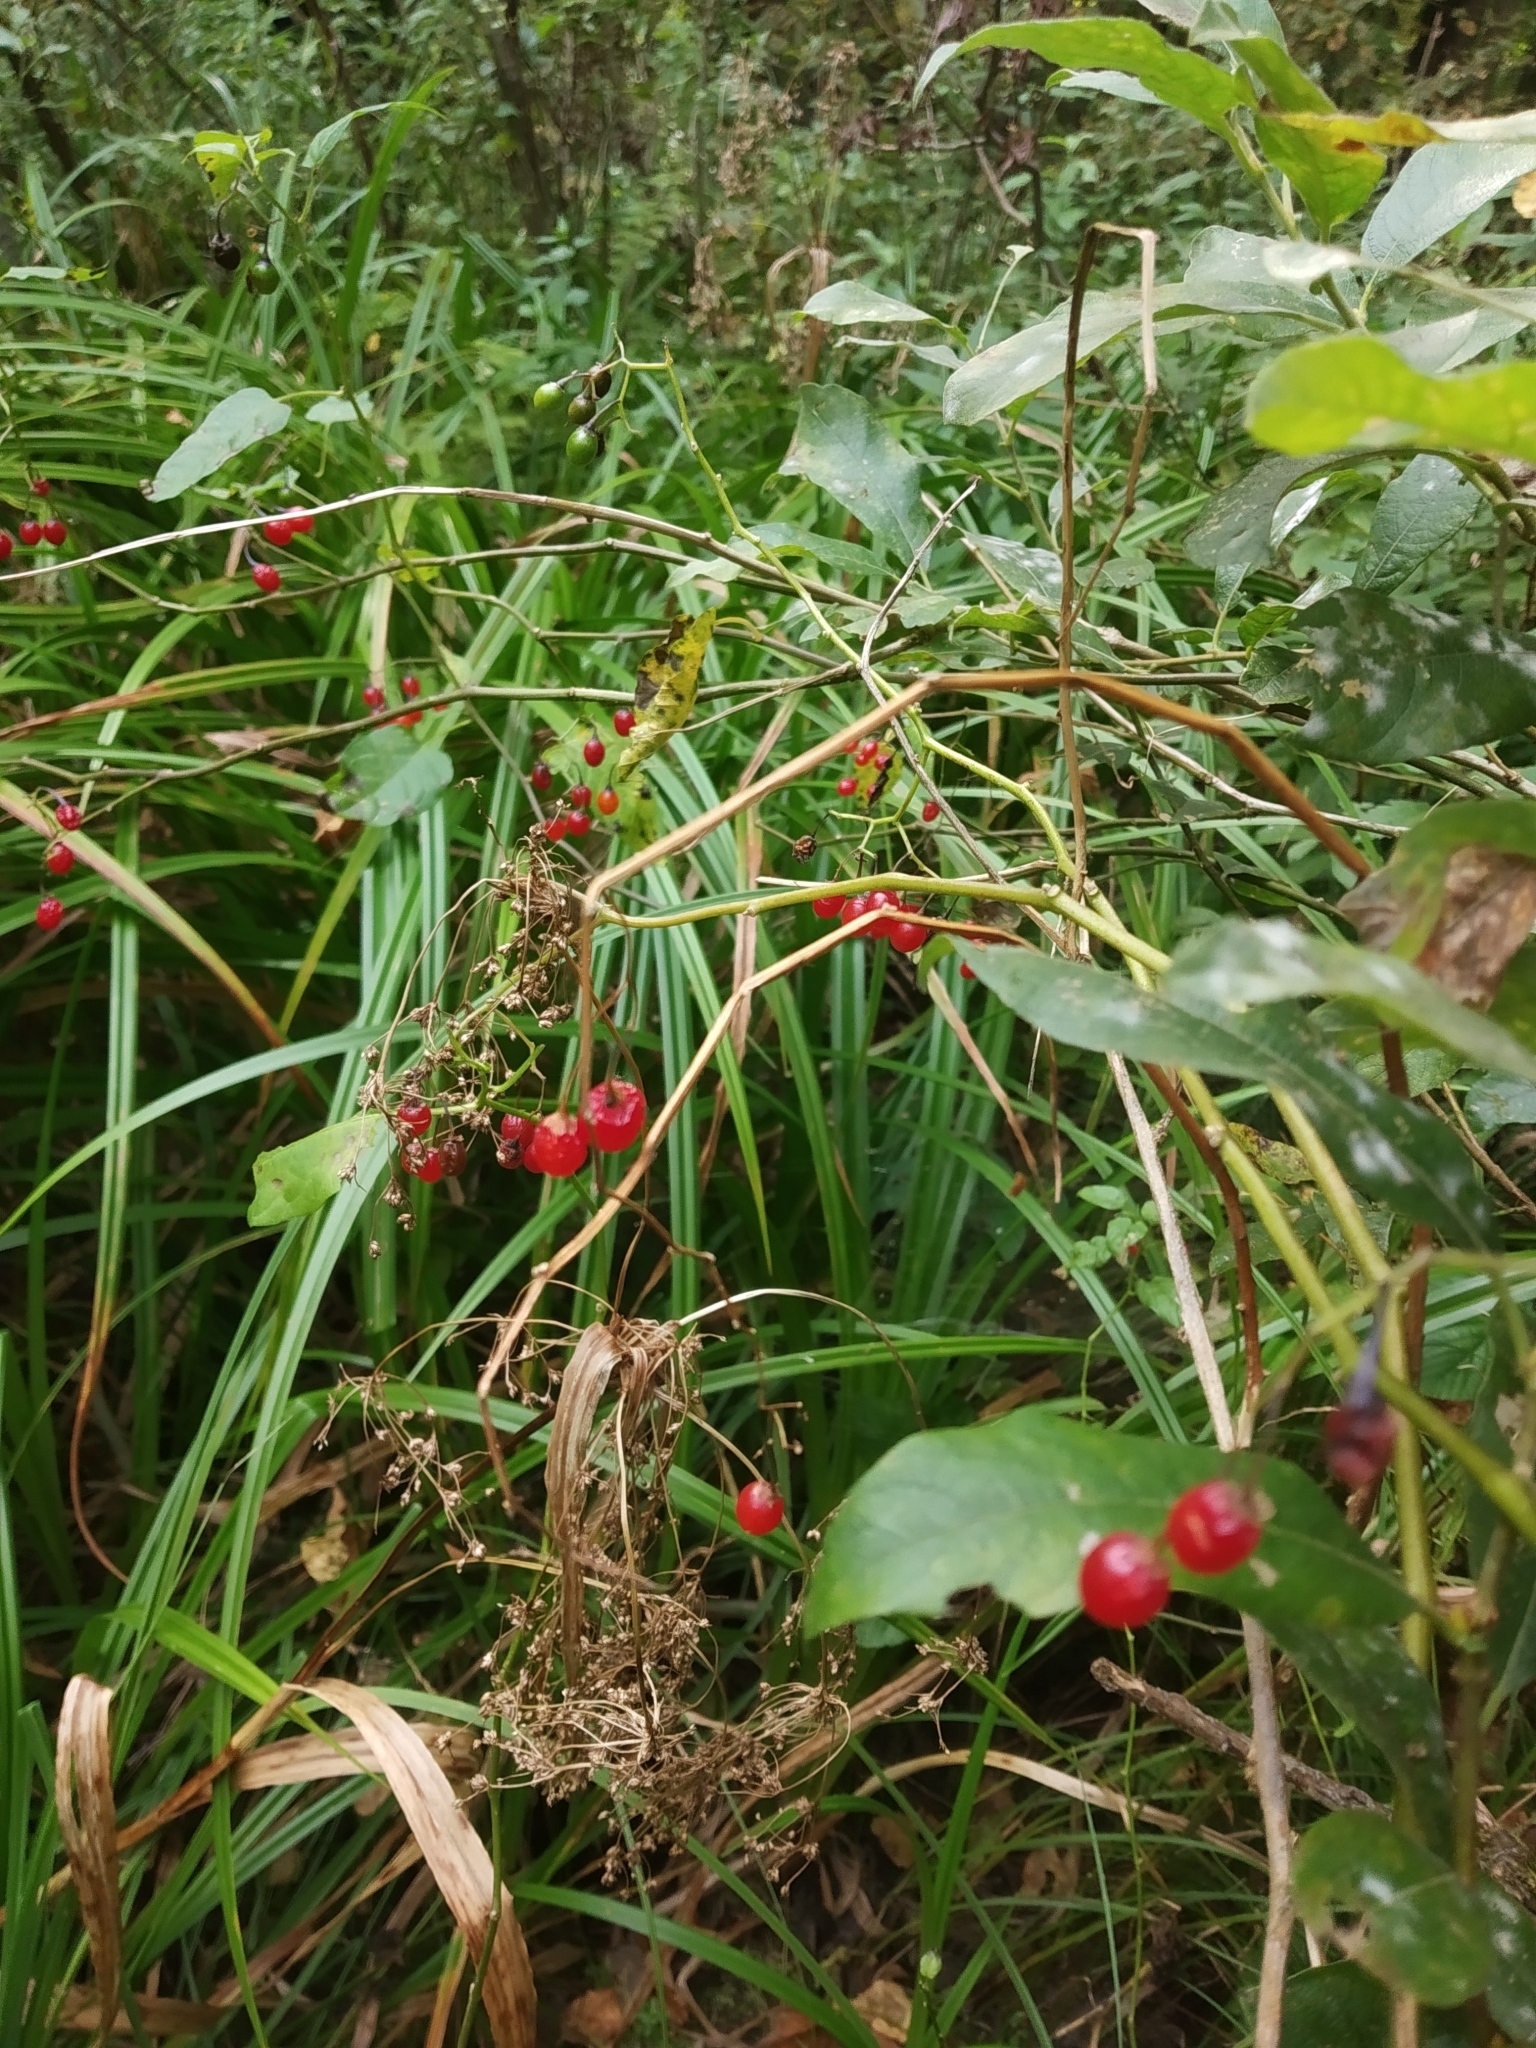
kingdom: Plantae
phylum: Tracheophyta
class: Magnoliopsida
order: Solanales
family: Solanaceae
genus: Solanum
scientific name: Solanum dulcamara
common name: Climbing nightshade
